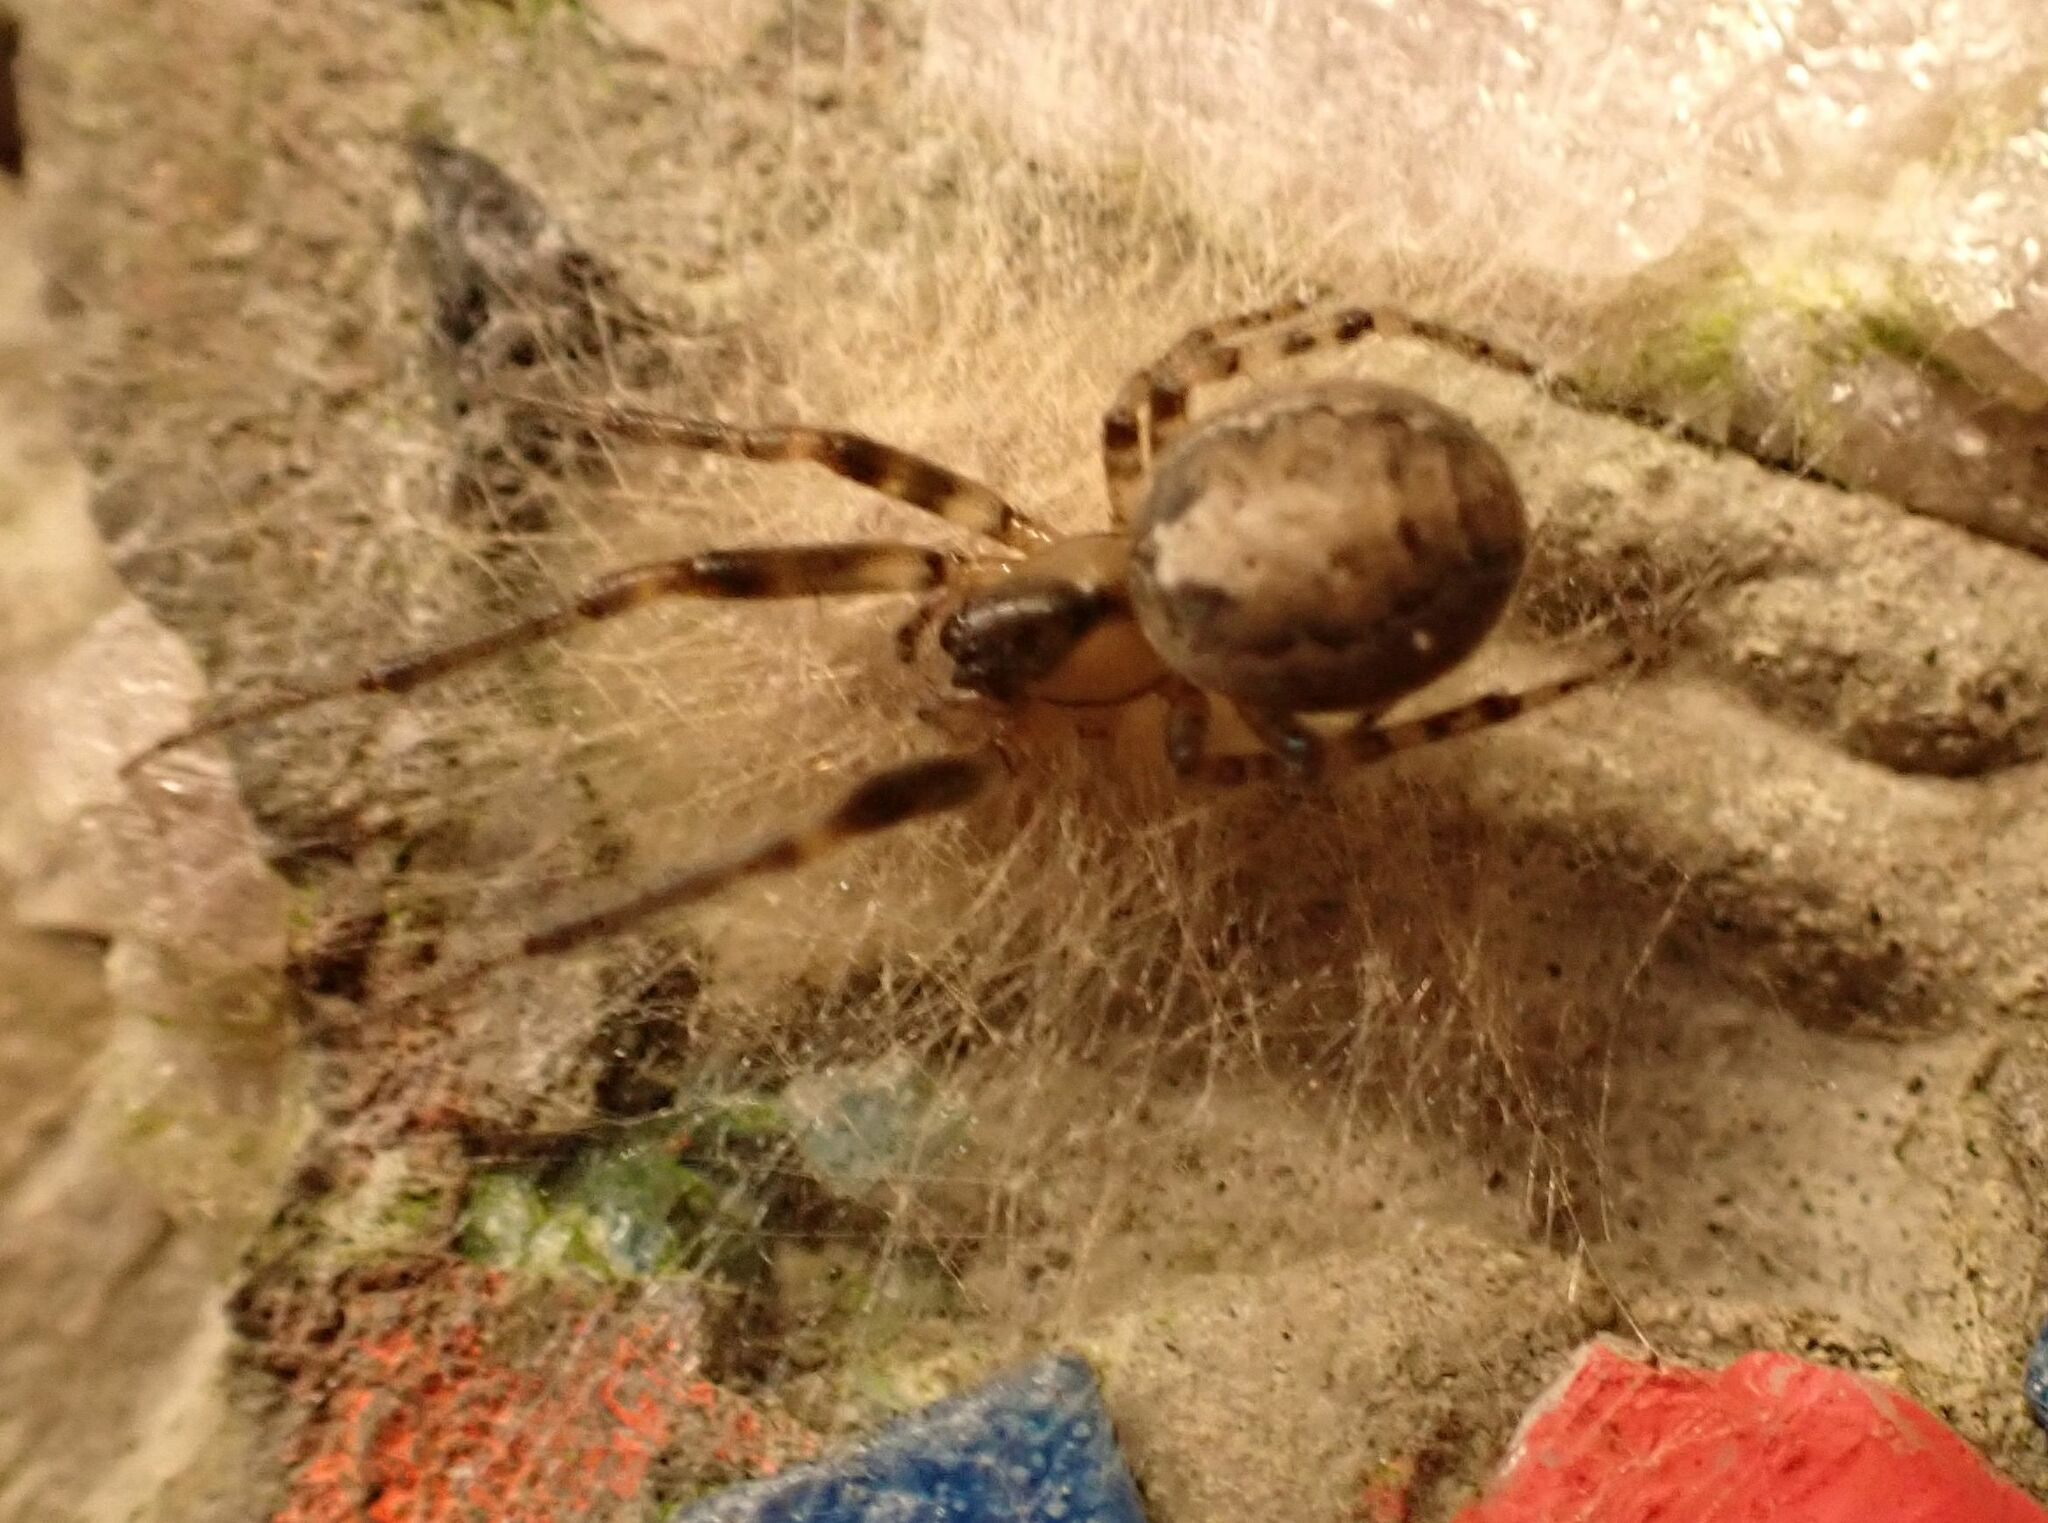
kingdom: Animalia
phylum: Arthropoda
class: Arachnida
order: Araneae
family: Araneidae
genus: Zygiella
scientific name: Zygiella x-notata
